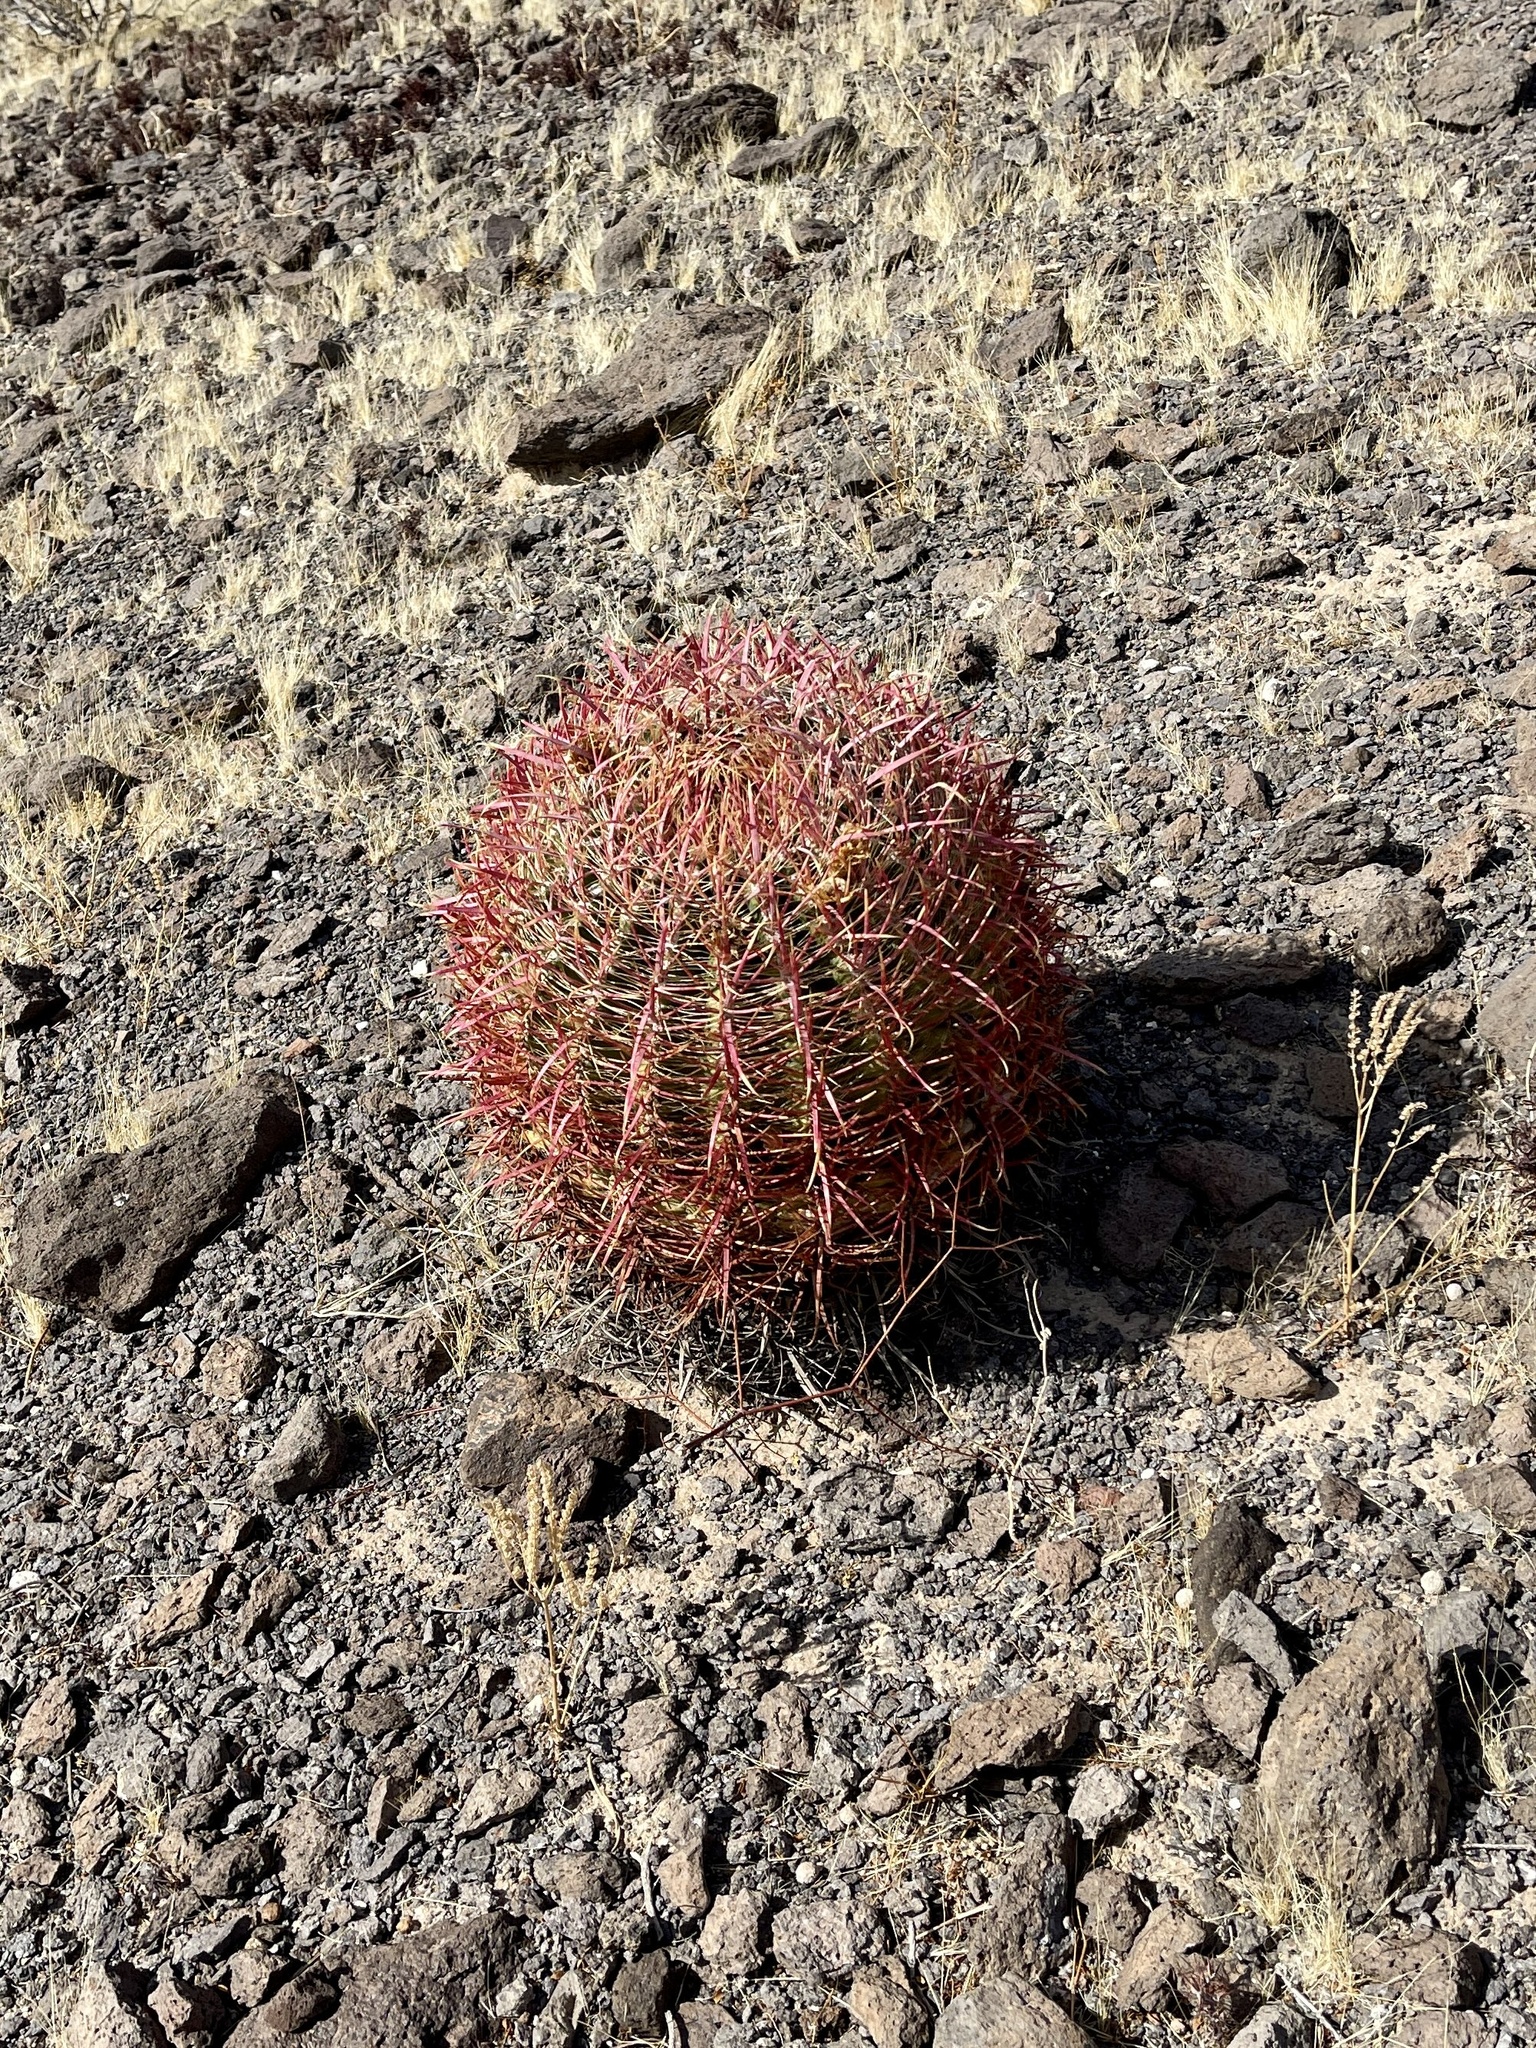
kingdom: Plantae
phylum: Tracheophyta
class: Magnoliopsida
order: Caryophyllales
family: Cactaceae
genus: Ferocactus
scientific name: Ferocactus cylindraceus
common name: California barrel cactus
